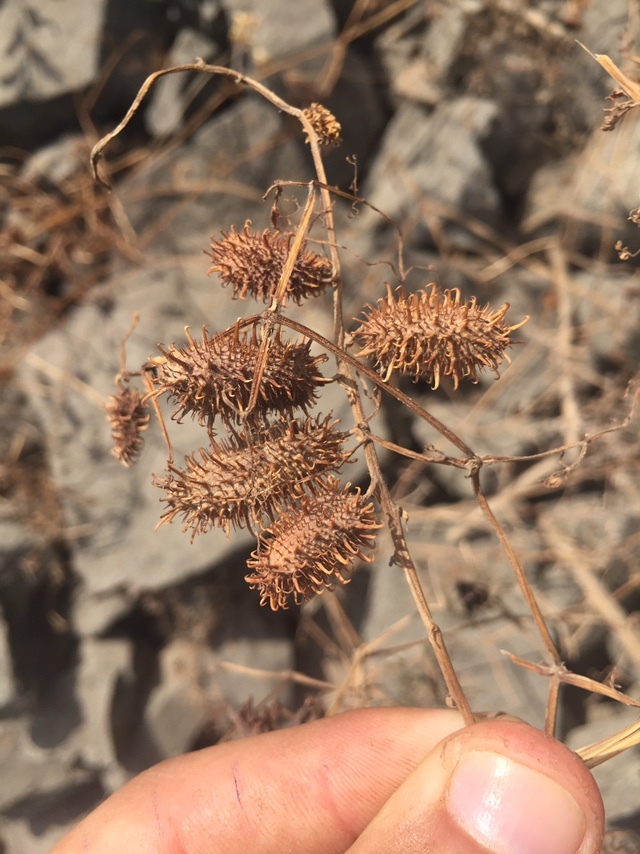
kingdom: Plantae
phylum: Tracheophyta
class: Magnoliopsida
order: Lamiales
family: Bignoniaceae
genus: Tourrettia
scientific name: Tourrettia lappacea
